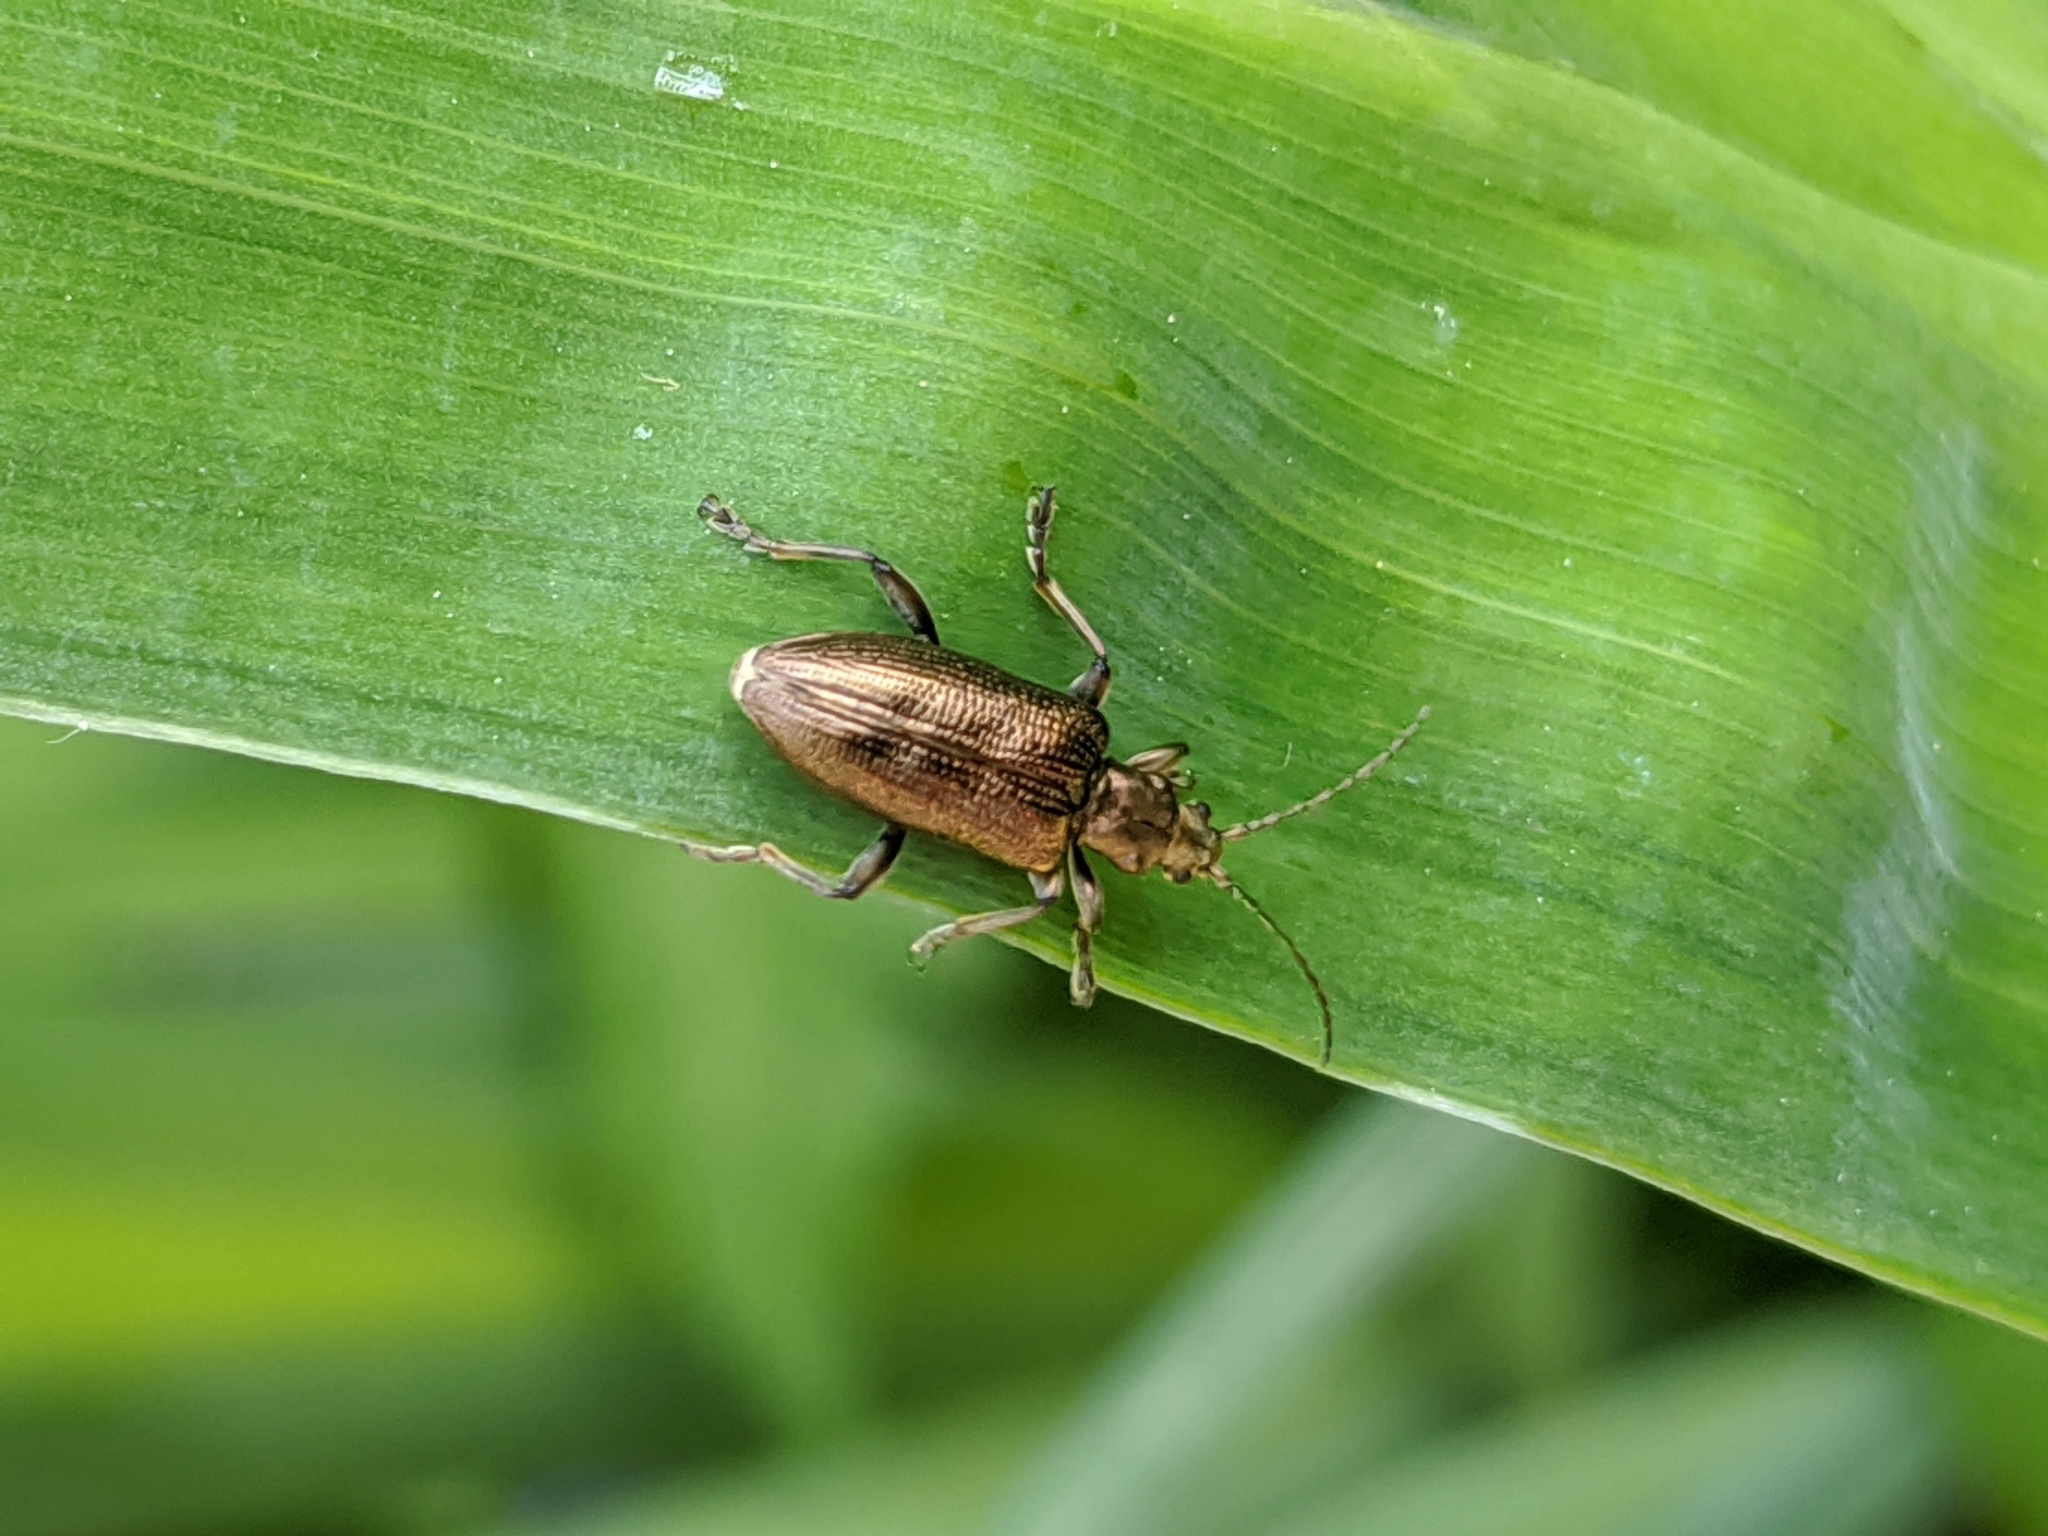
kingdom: Animalia
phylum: Arthropoda
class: Insecta
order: Coleoptera
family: Chrysomelidae
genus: Plateumaris
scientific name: Plateumaris sericea
